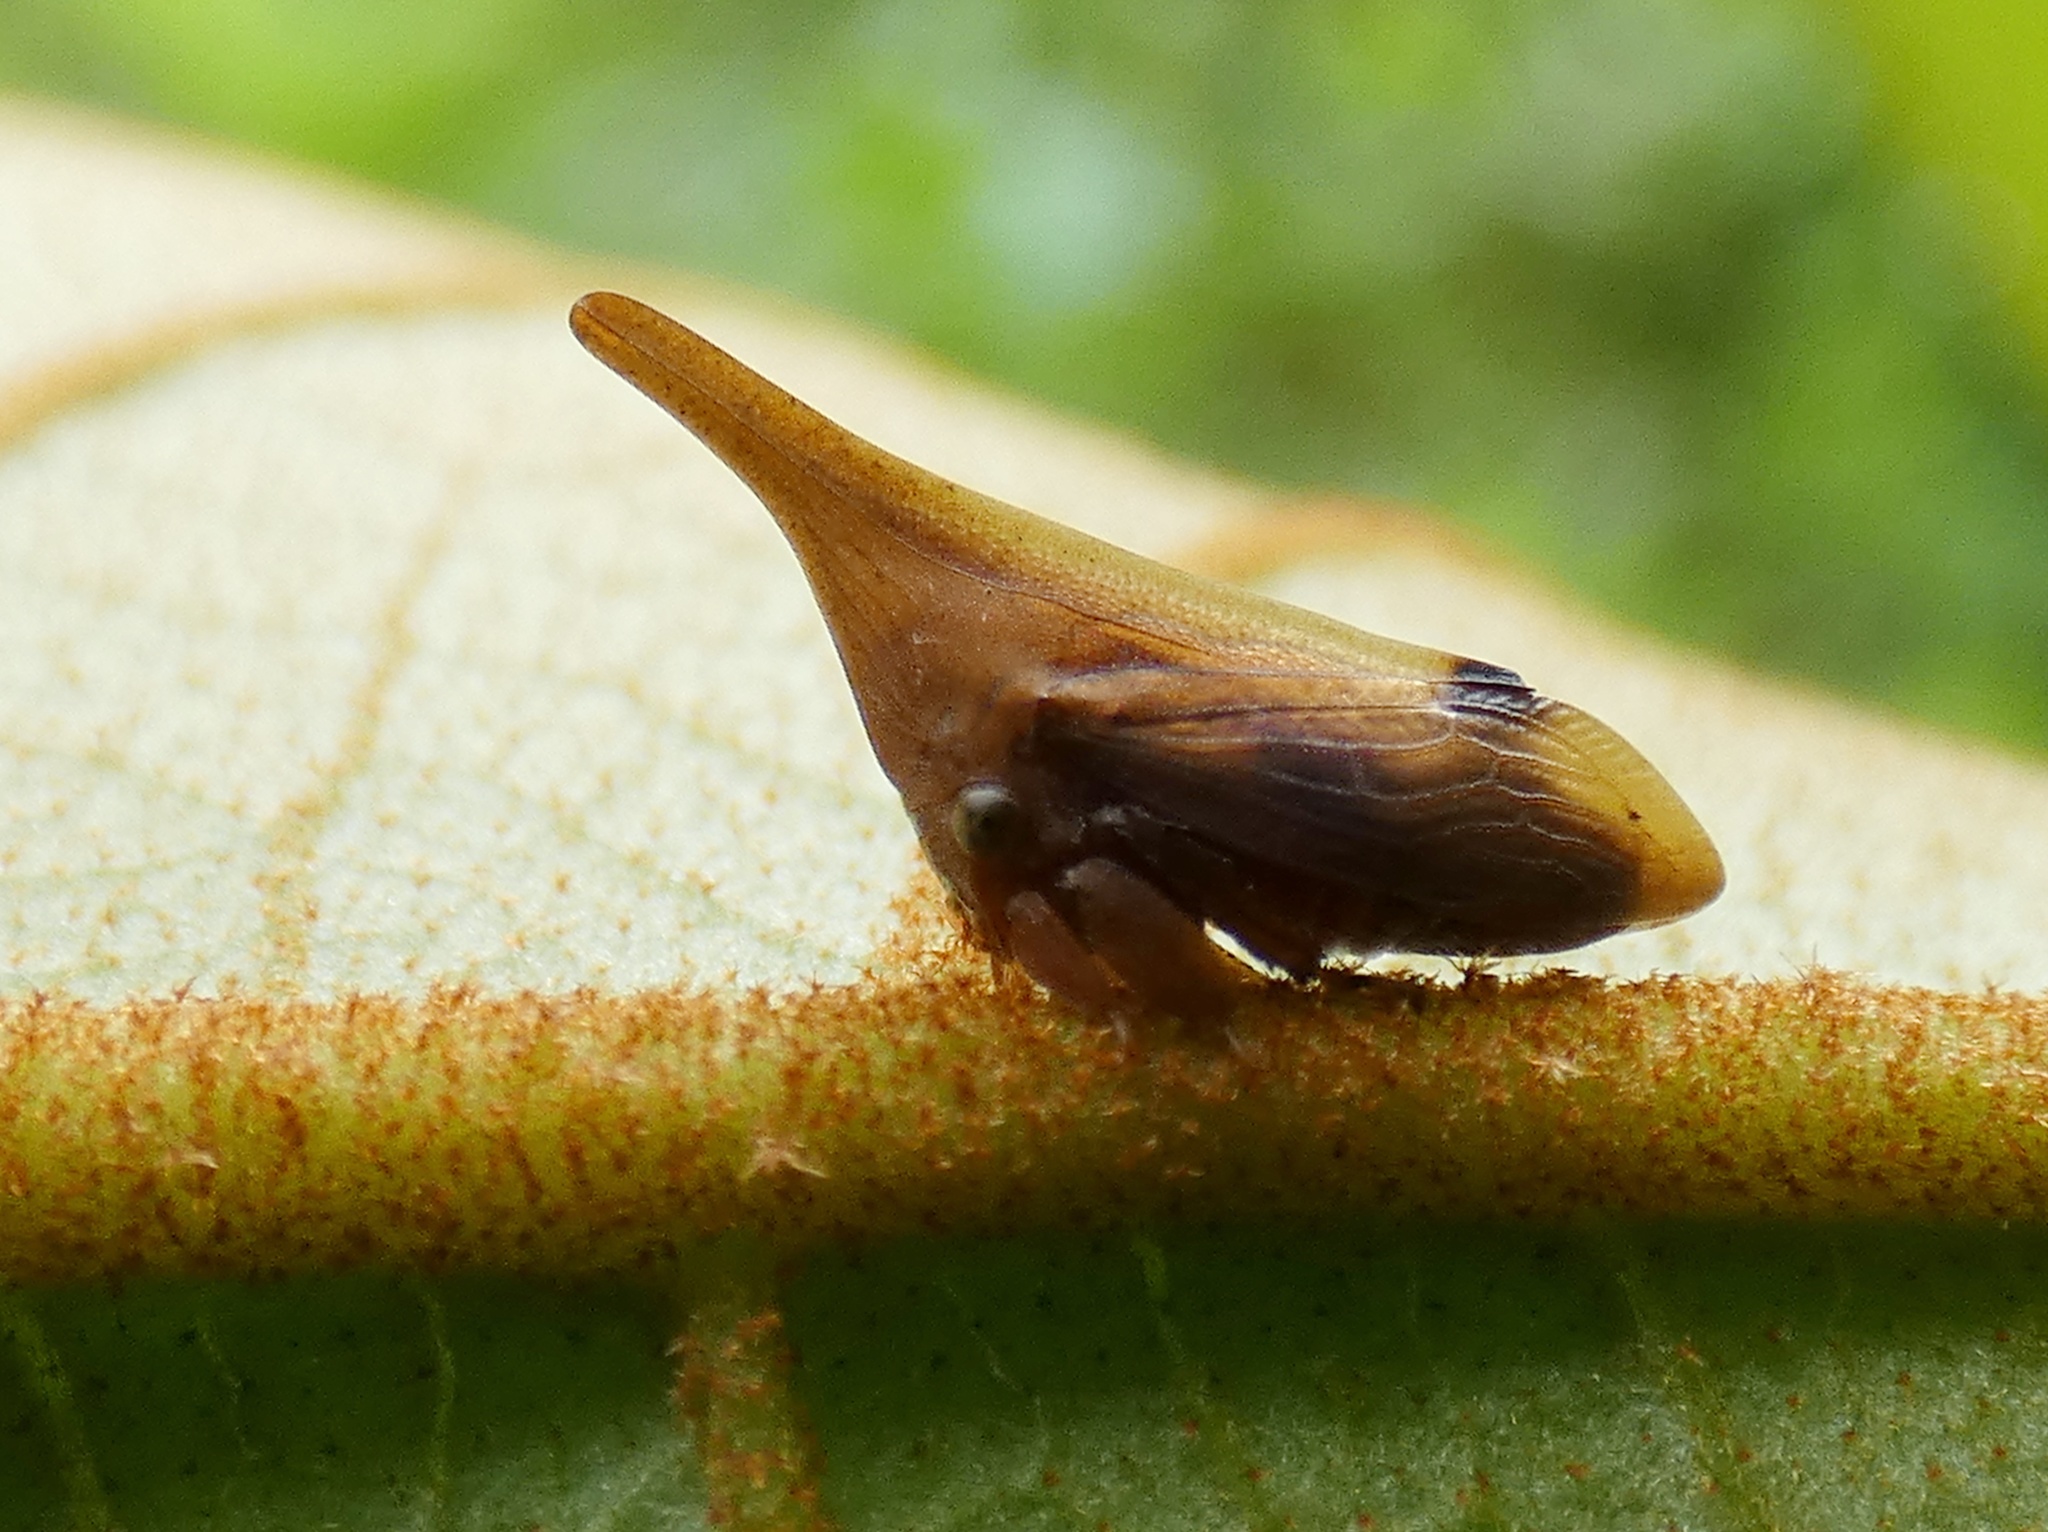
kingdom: Animalia
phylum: Arthropoda
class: Insecta
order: Hemiptera
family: Membracidae
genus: Enchenopa
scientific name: Enchenopa concolor
